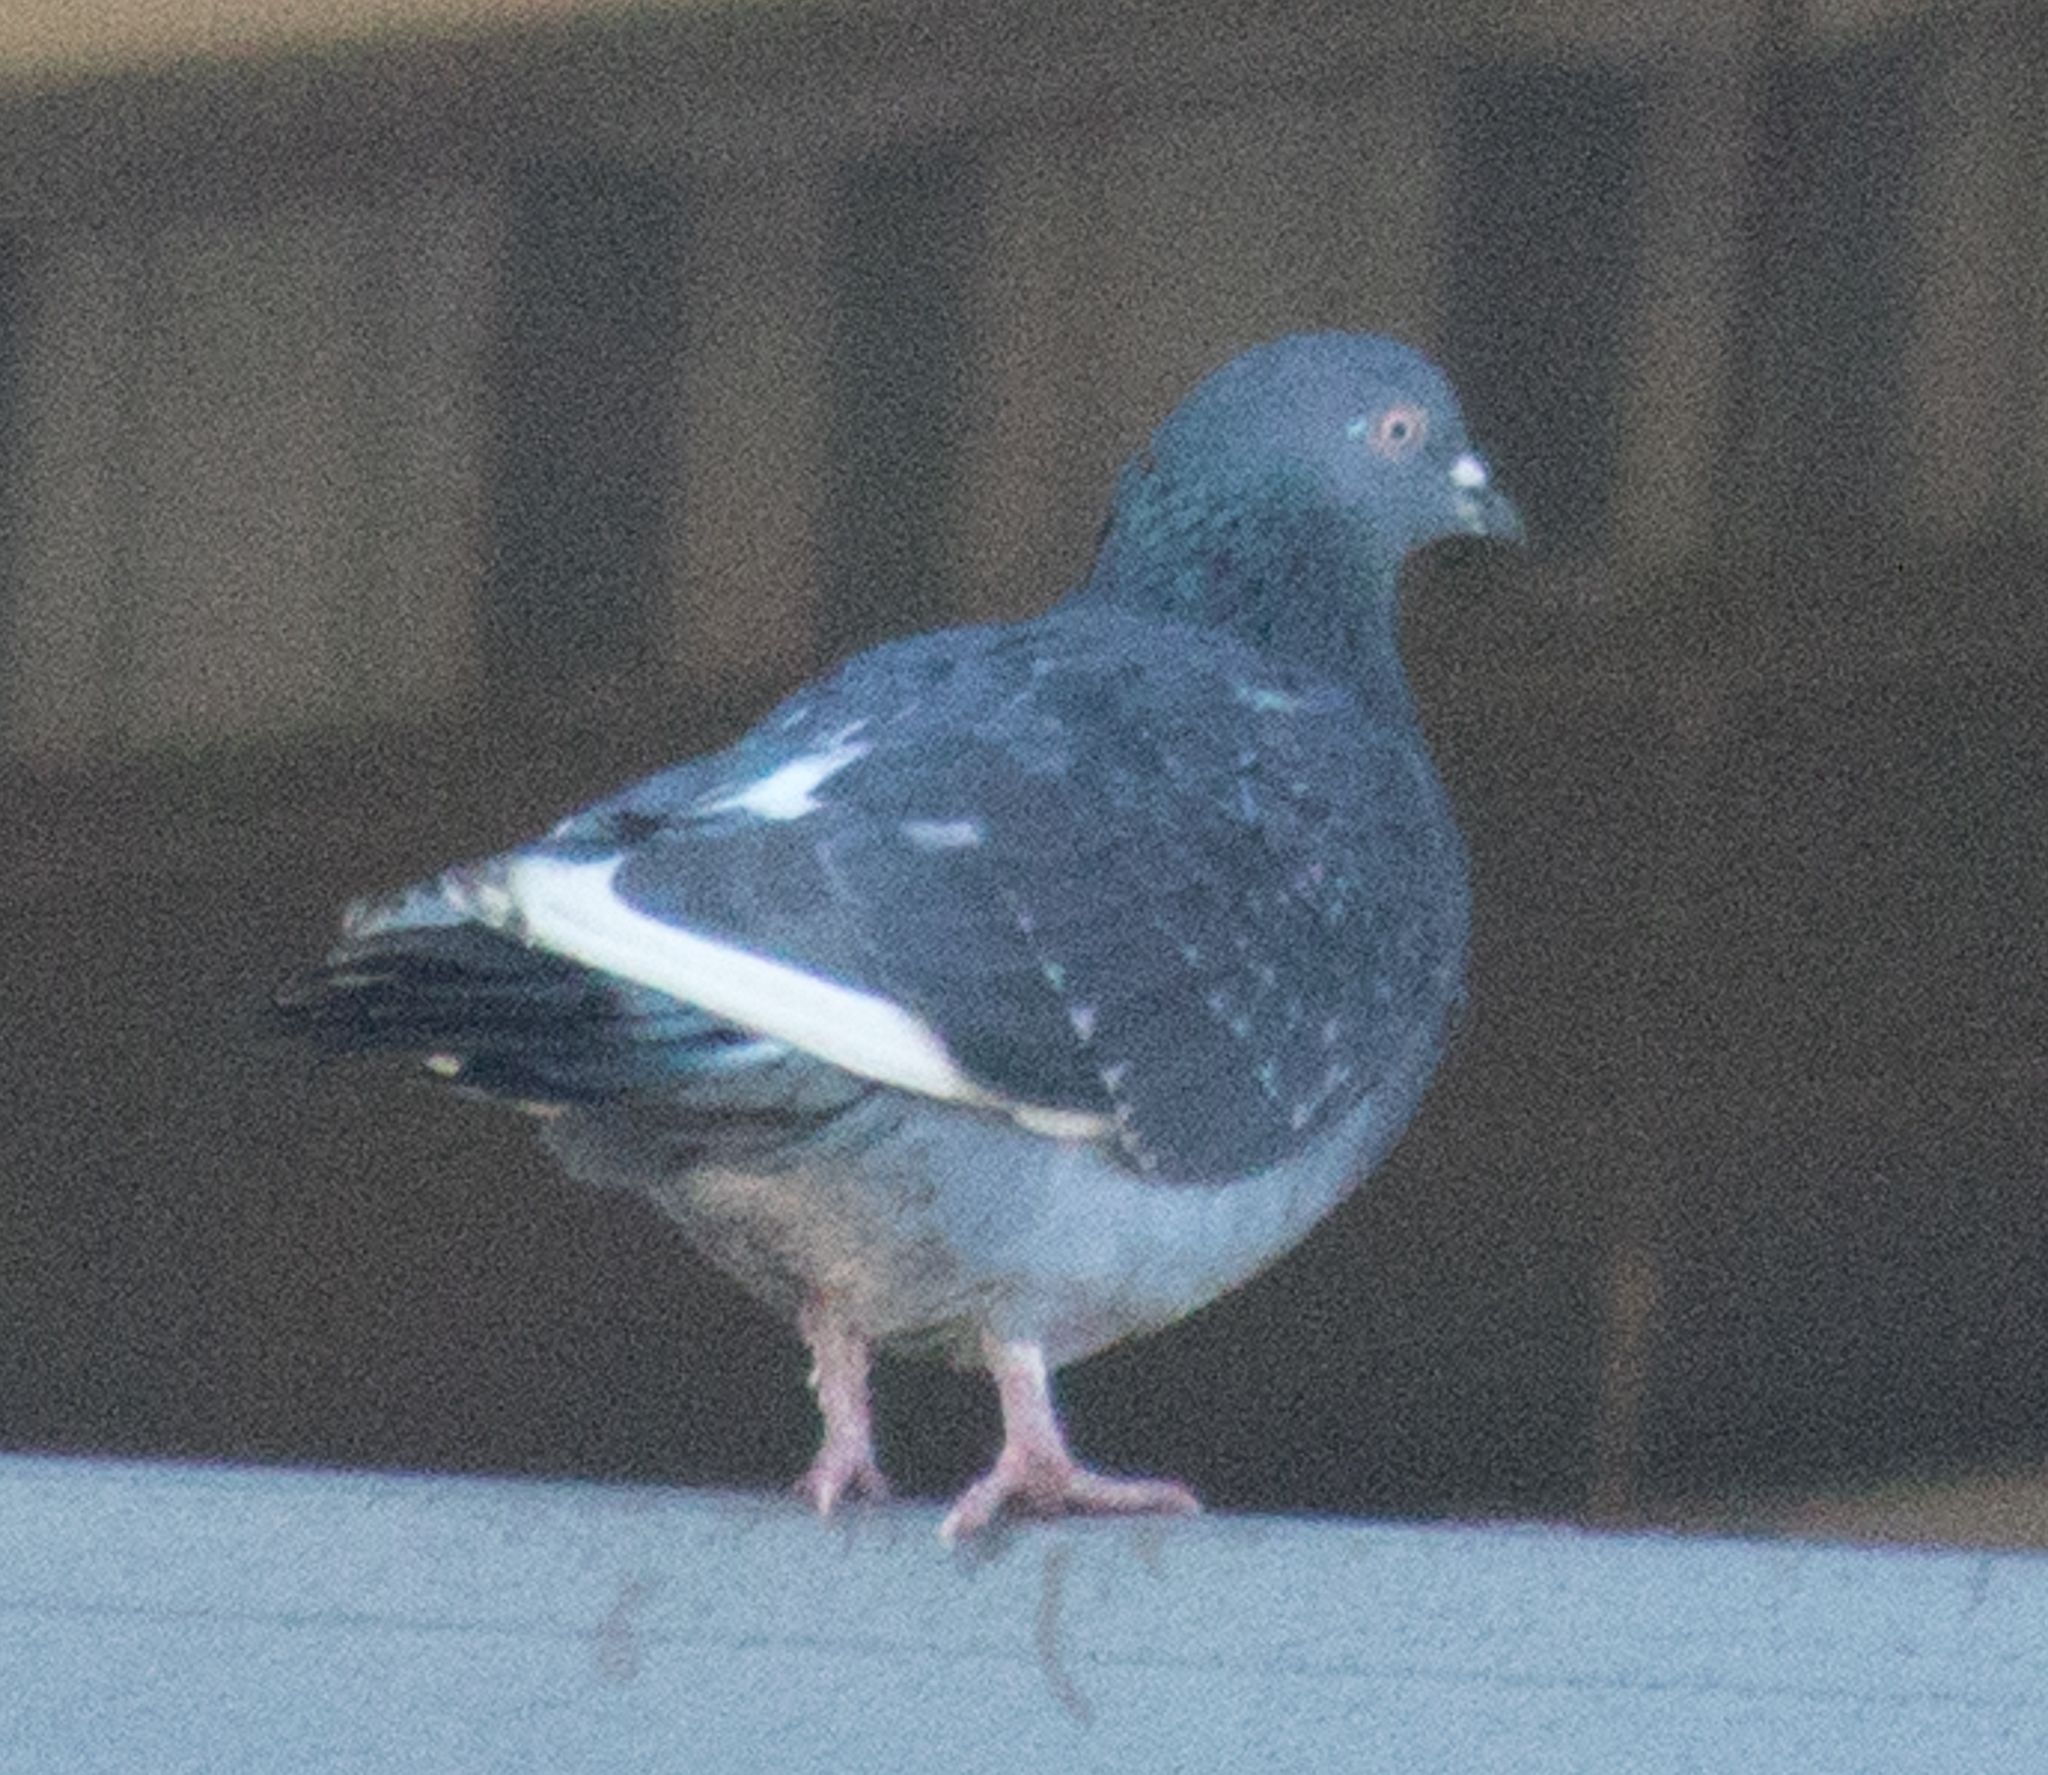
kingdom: Animalia
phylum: Chordata
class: Aves
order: Columbiformes
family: Columbidae
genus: Columba
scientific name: Columba livia
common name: Rock pigeon
